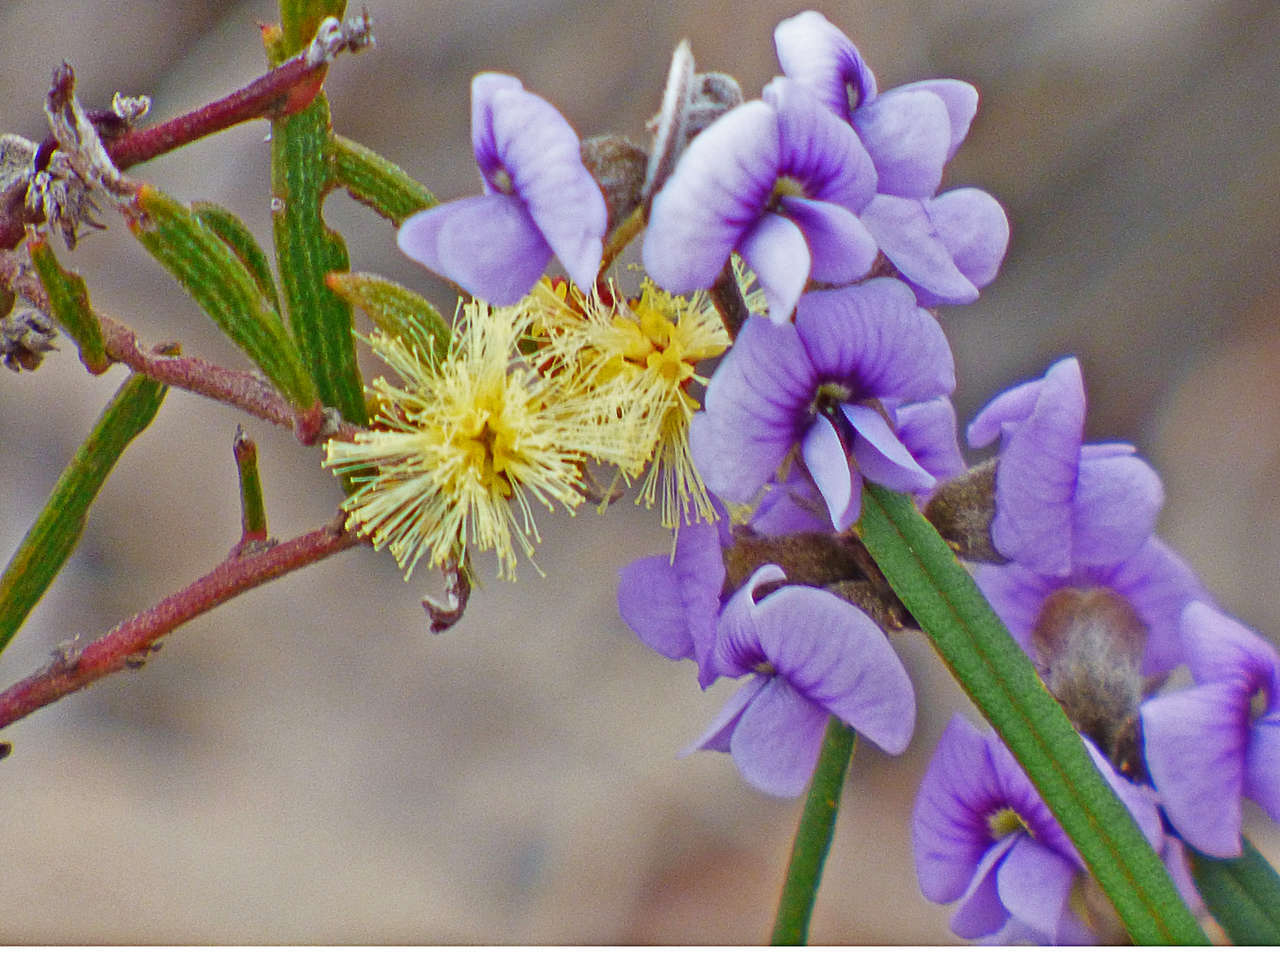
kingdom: Plantae
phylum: Tracheophyta
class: Magnoliopsida
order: Fabales
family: Fabaceae
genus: Hovea
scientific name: Hovea heterophylla
